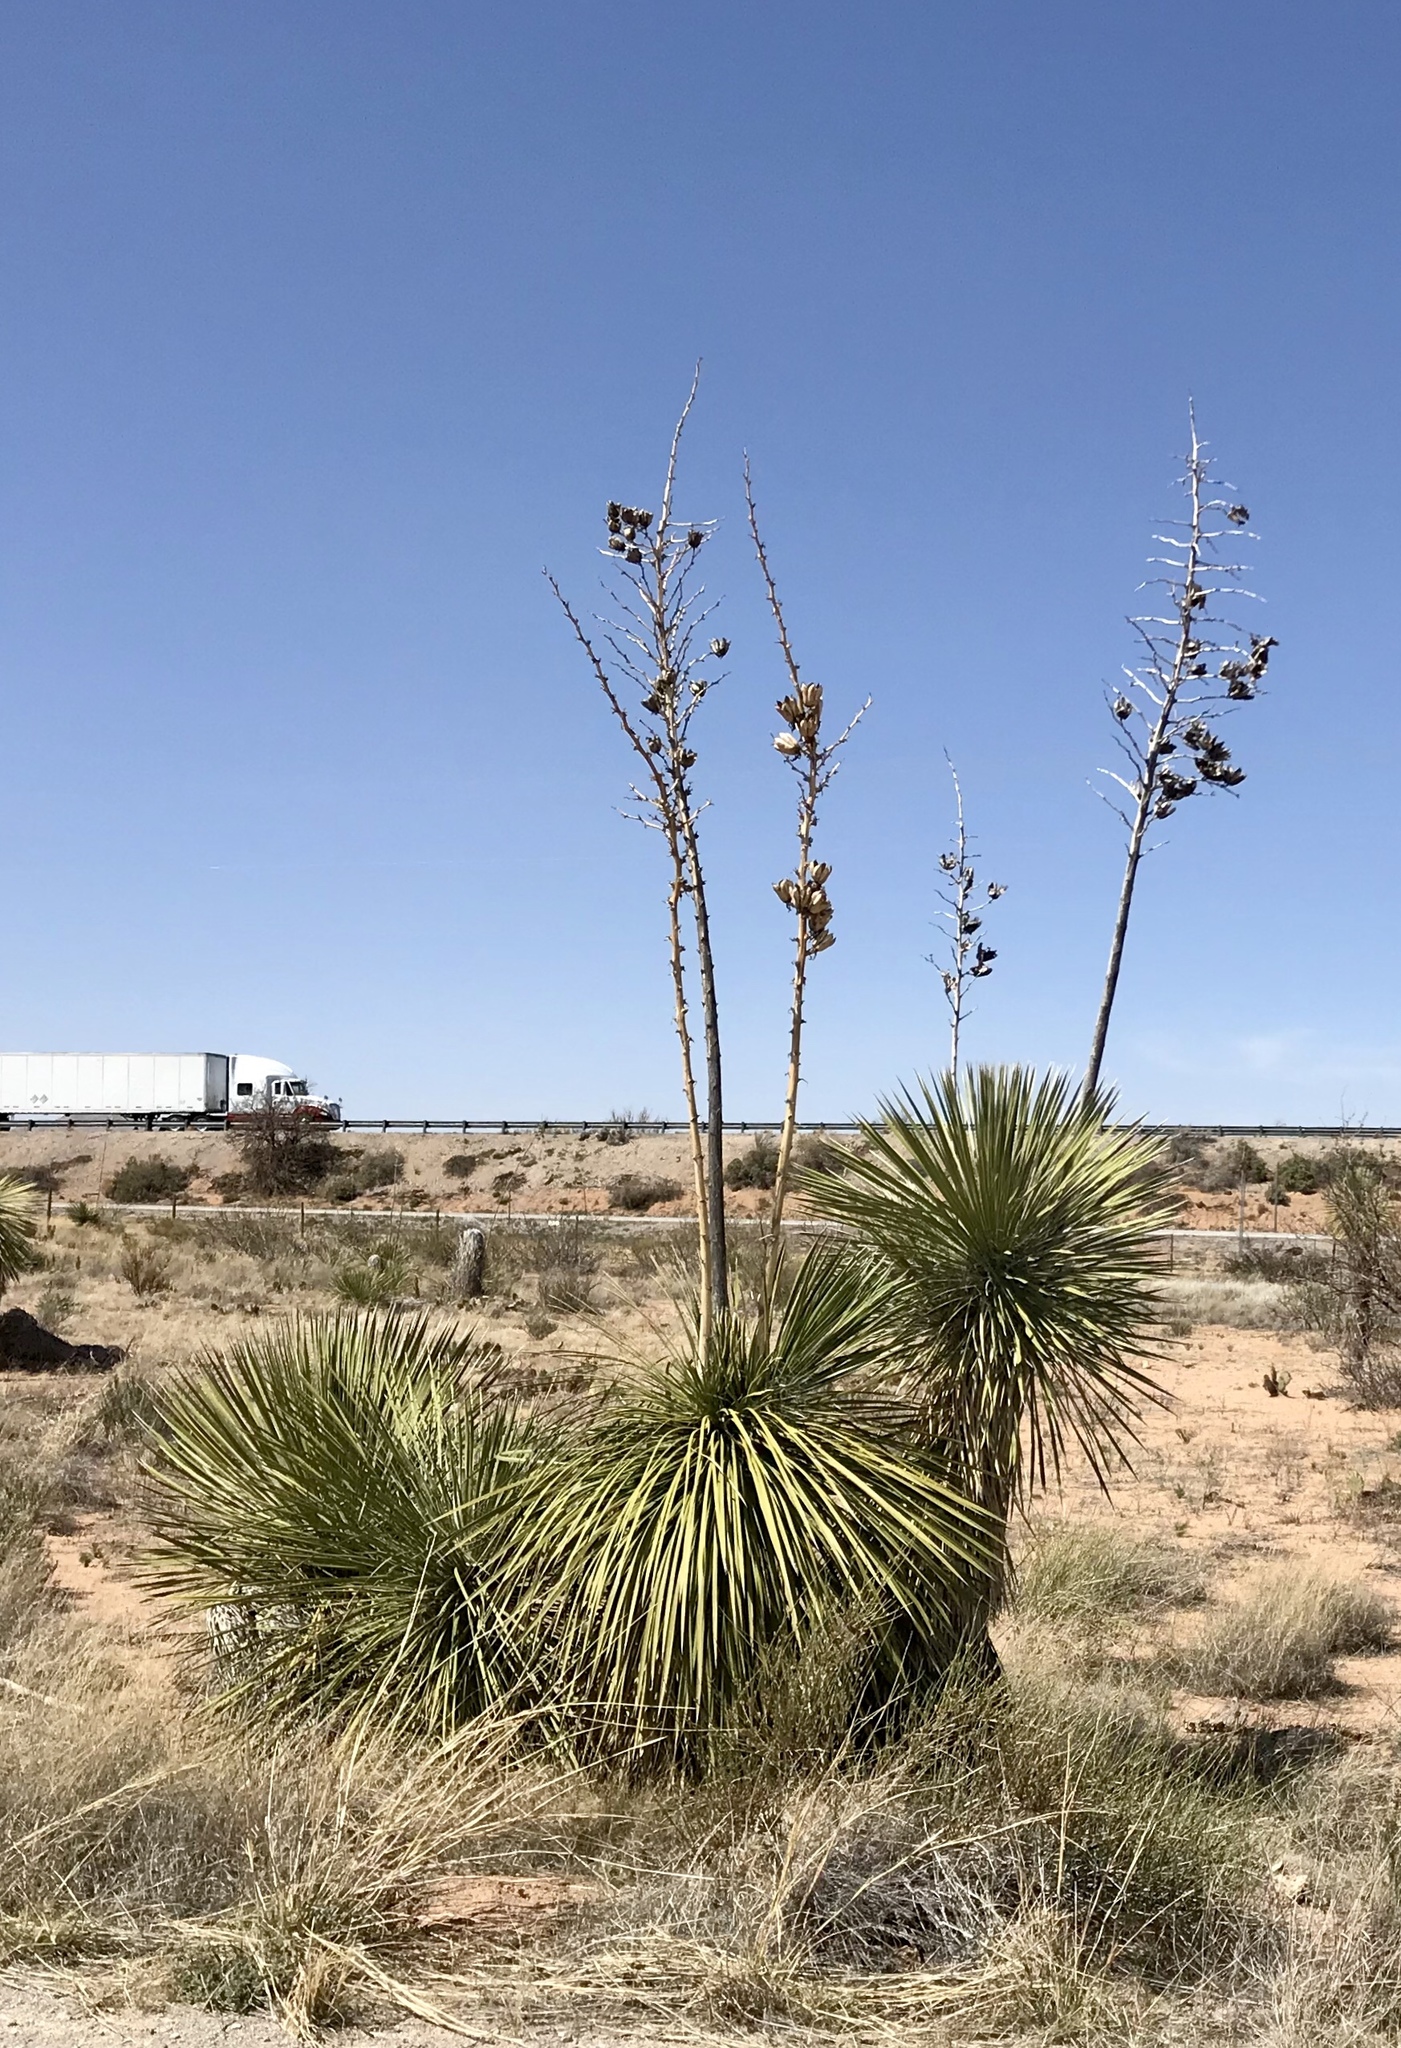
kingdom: Plantae
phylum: Tracheophyta
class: Liliopsida
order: Asparagales
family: Asparagaceae
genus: Yucca
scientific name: Yucca elata
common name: Palmella
